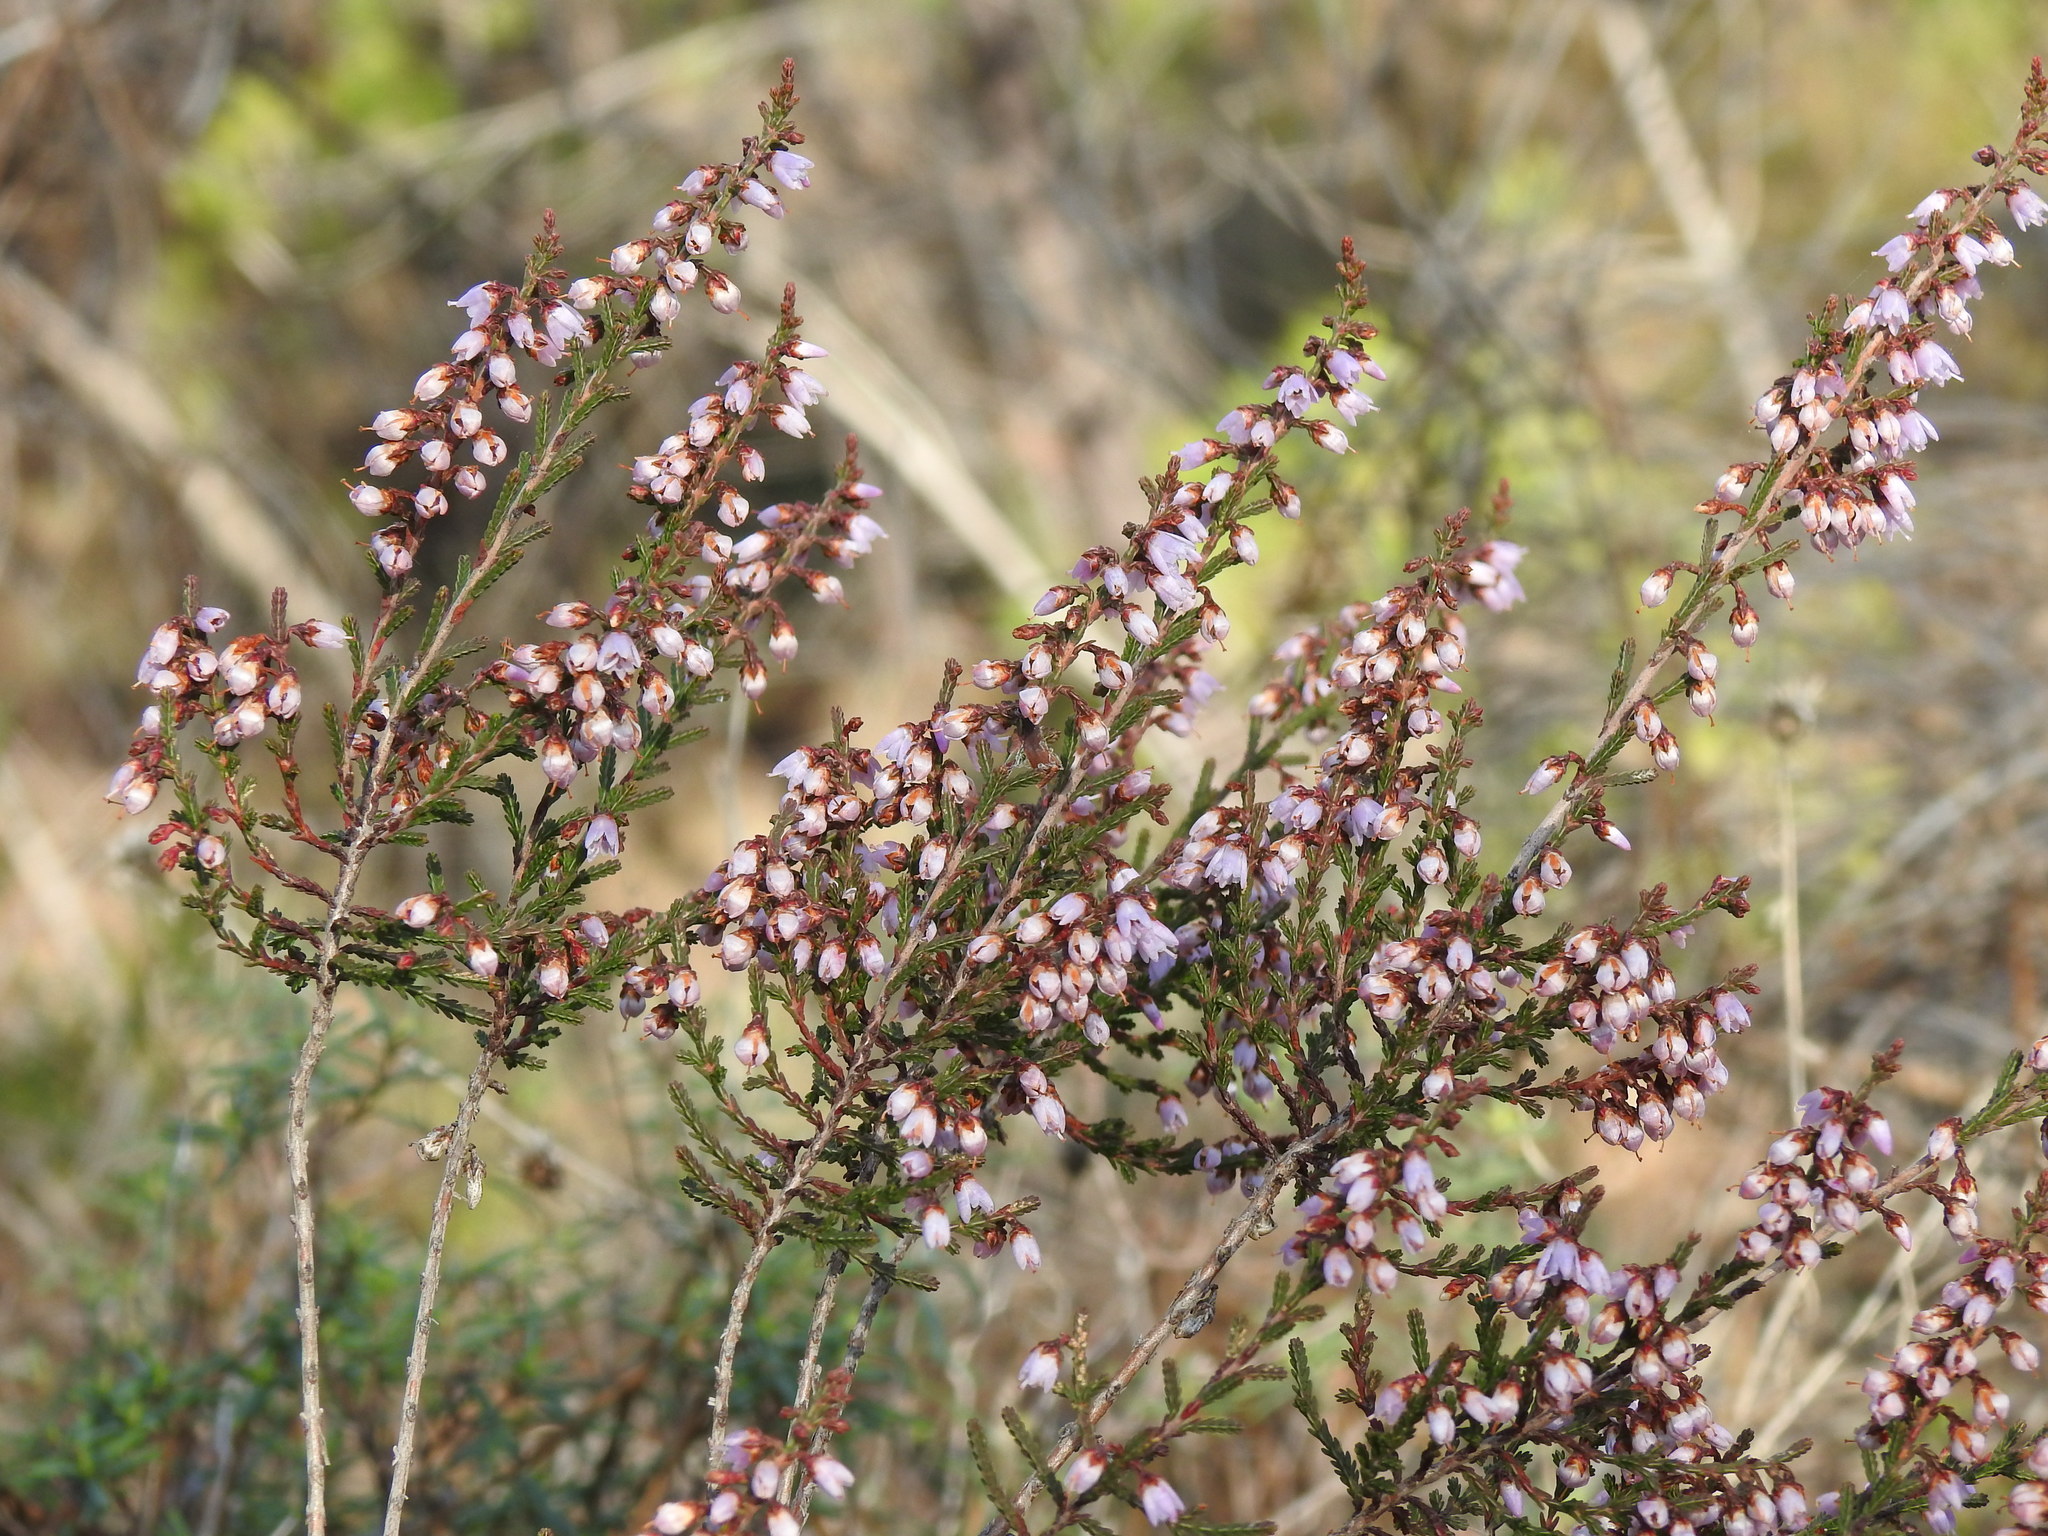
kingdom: Plantae
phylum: Tracheophyta
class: Magnoliopsida
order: Ericales
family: Ericaceae
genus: Calluna
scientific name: Calluna vulgaris
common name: Heather
